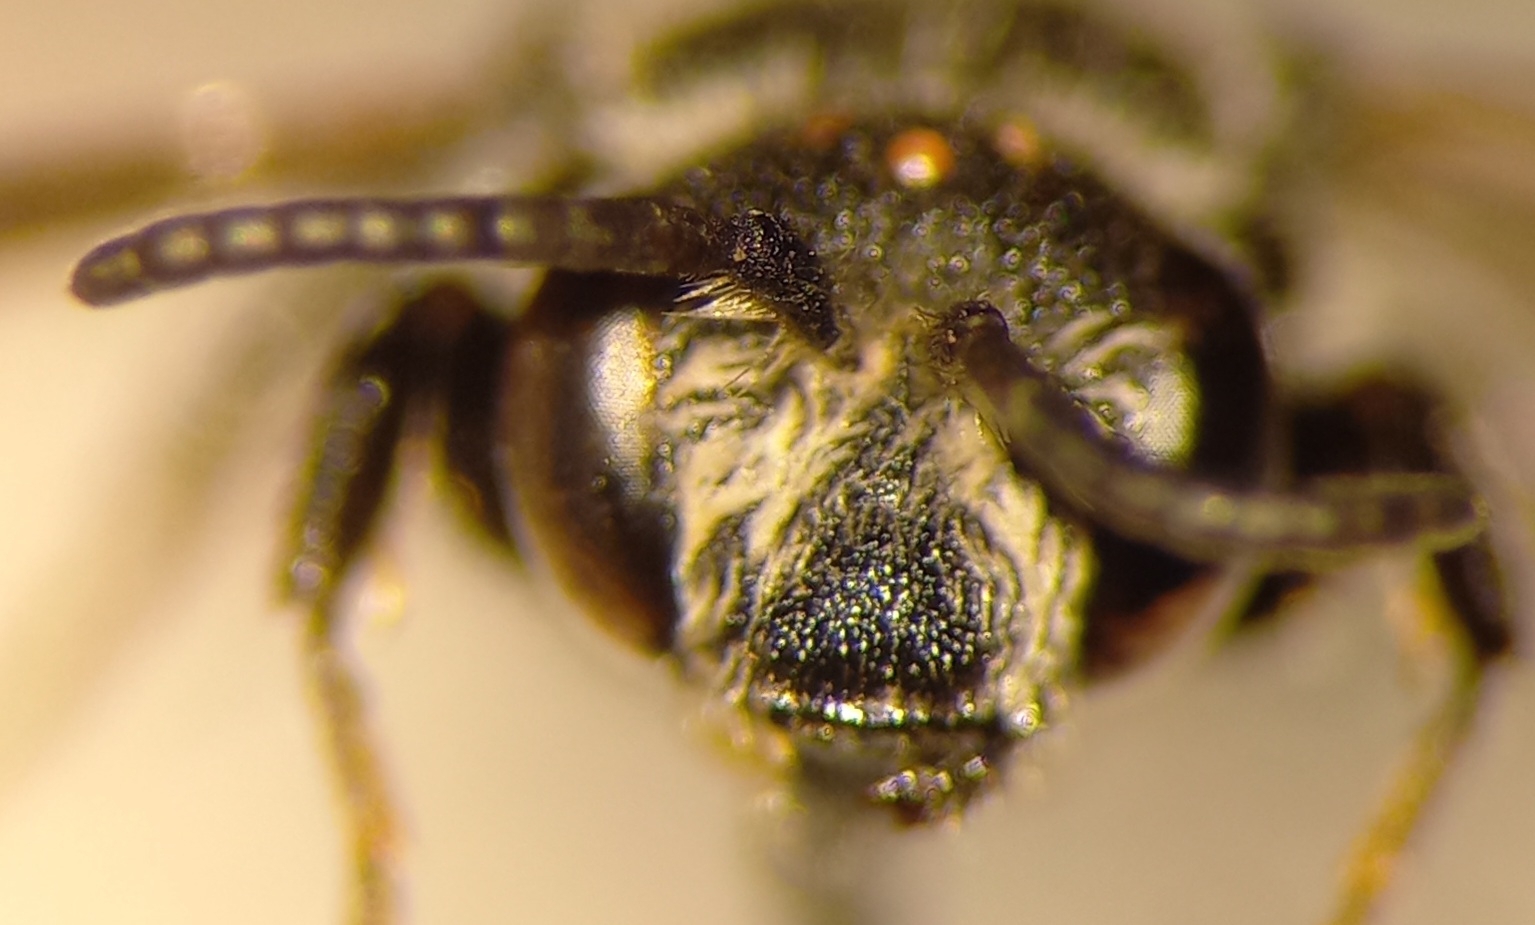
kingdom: Animalia
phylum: Arthropoda
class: Insecta
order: Hymenoptera
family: Megachilidae
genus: Aglaoapis
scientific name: Aglaoapis tridentata
